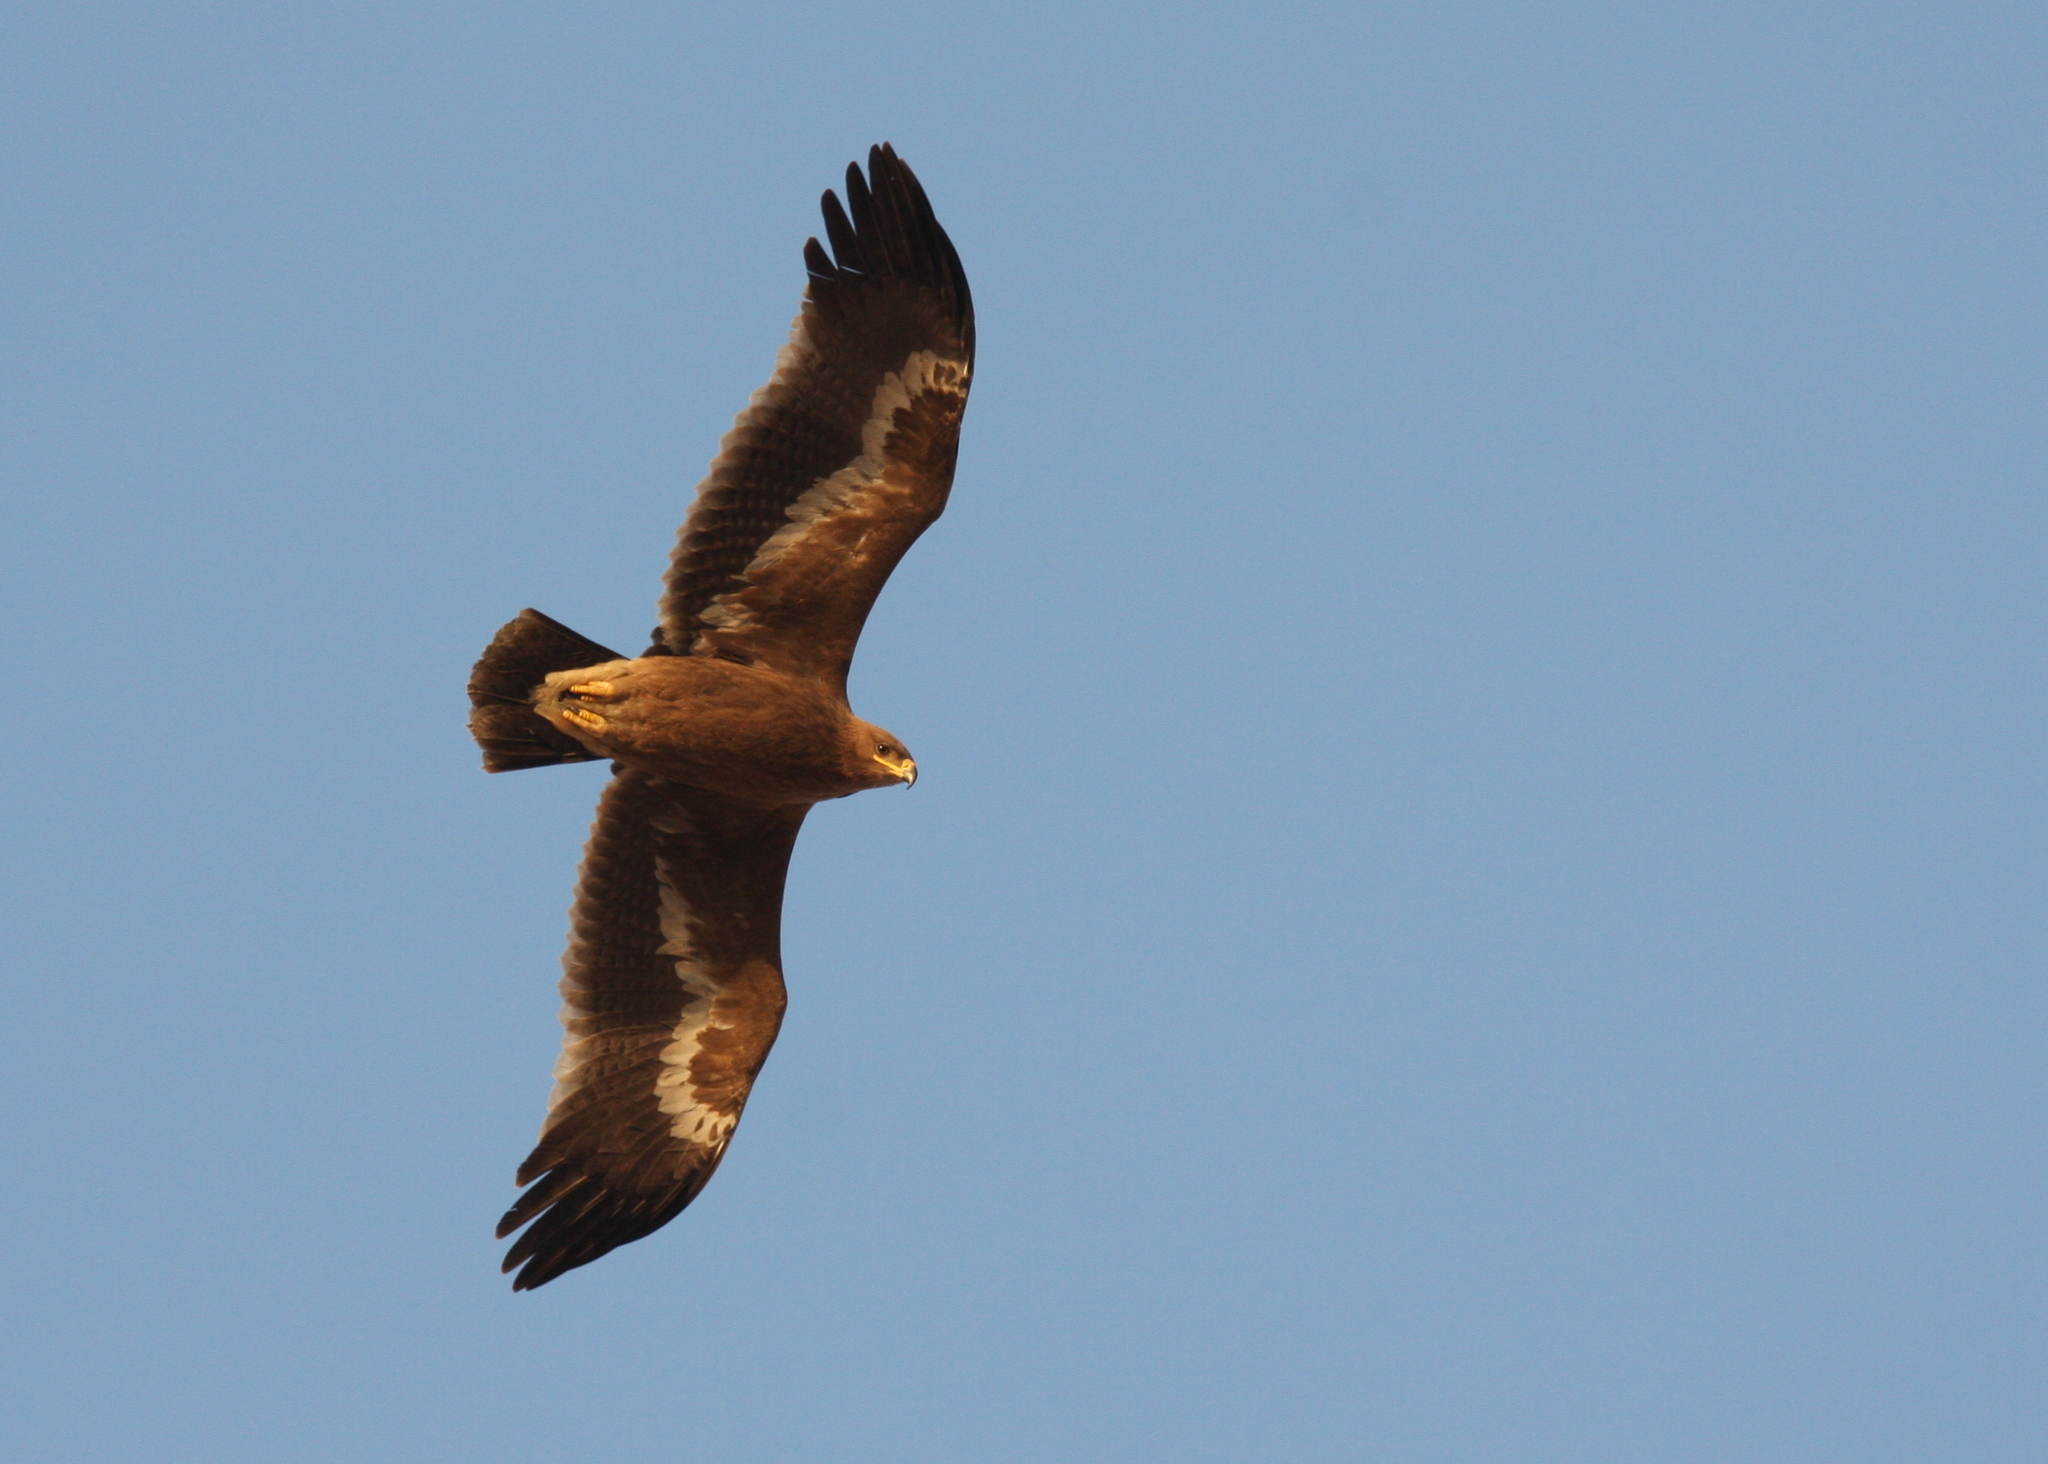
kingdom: Animalia
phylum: Chordata
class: Aves
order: Accipitriformes
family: Accipitridae
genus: Aquila
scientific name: Aquila nipalensis
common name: Steppe eagle
